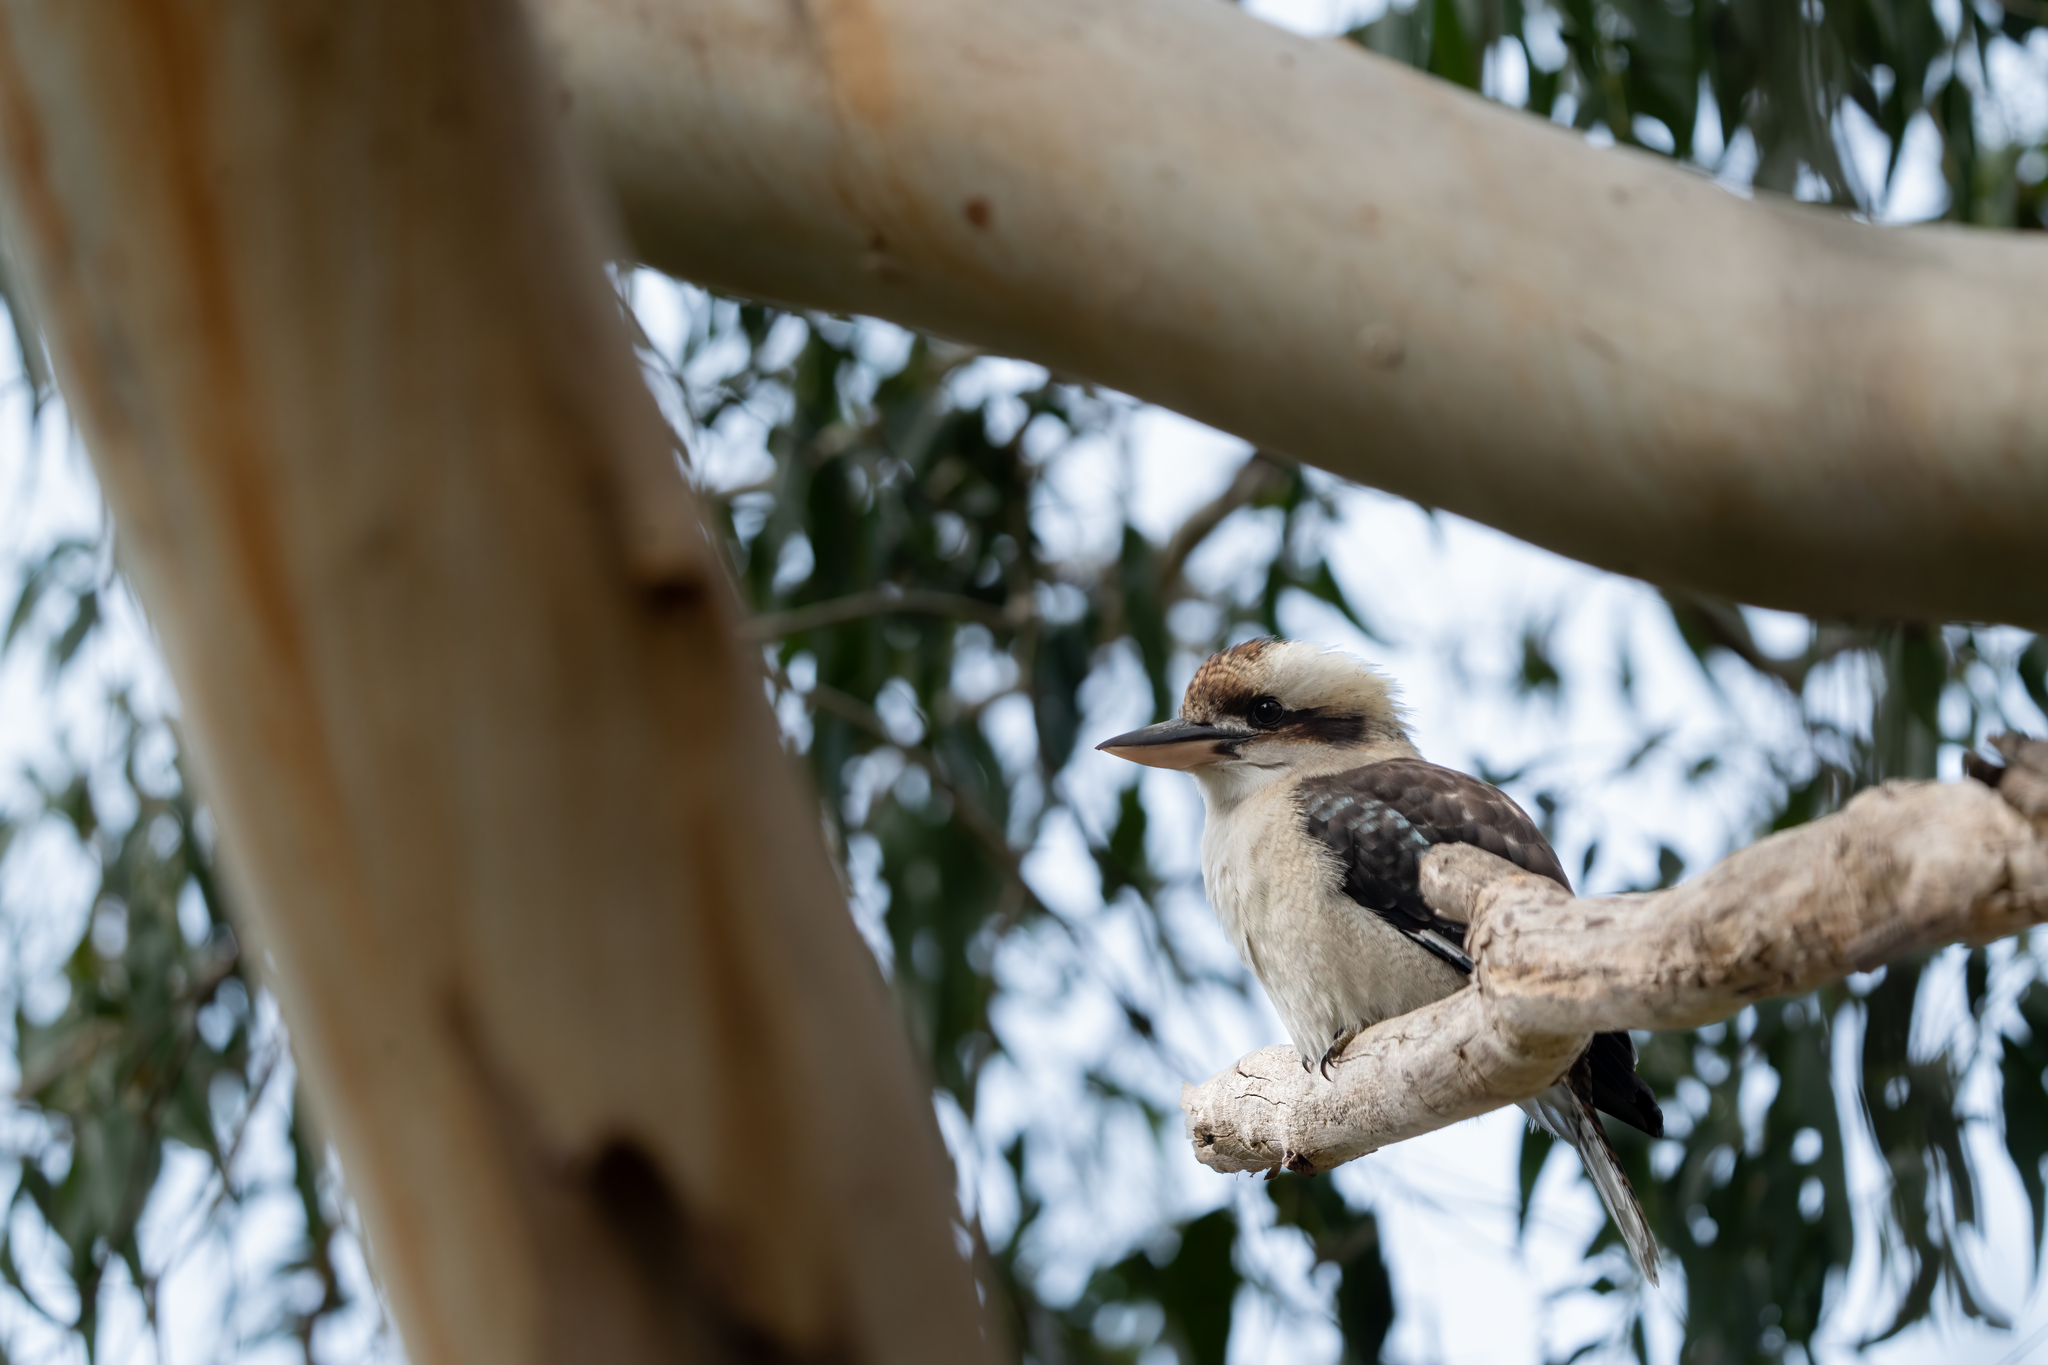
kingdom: Animalia
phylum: Chordata
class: Aves
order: Coraciiformes
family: Alcedinidae
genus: Dacelo
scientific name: Dacelo novaeguineae
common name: Laughing kookaburra
